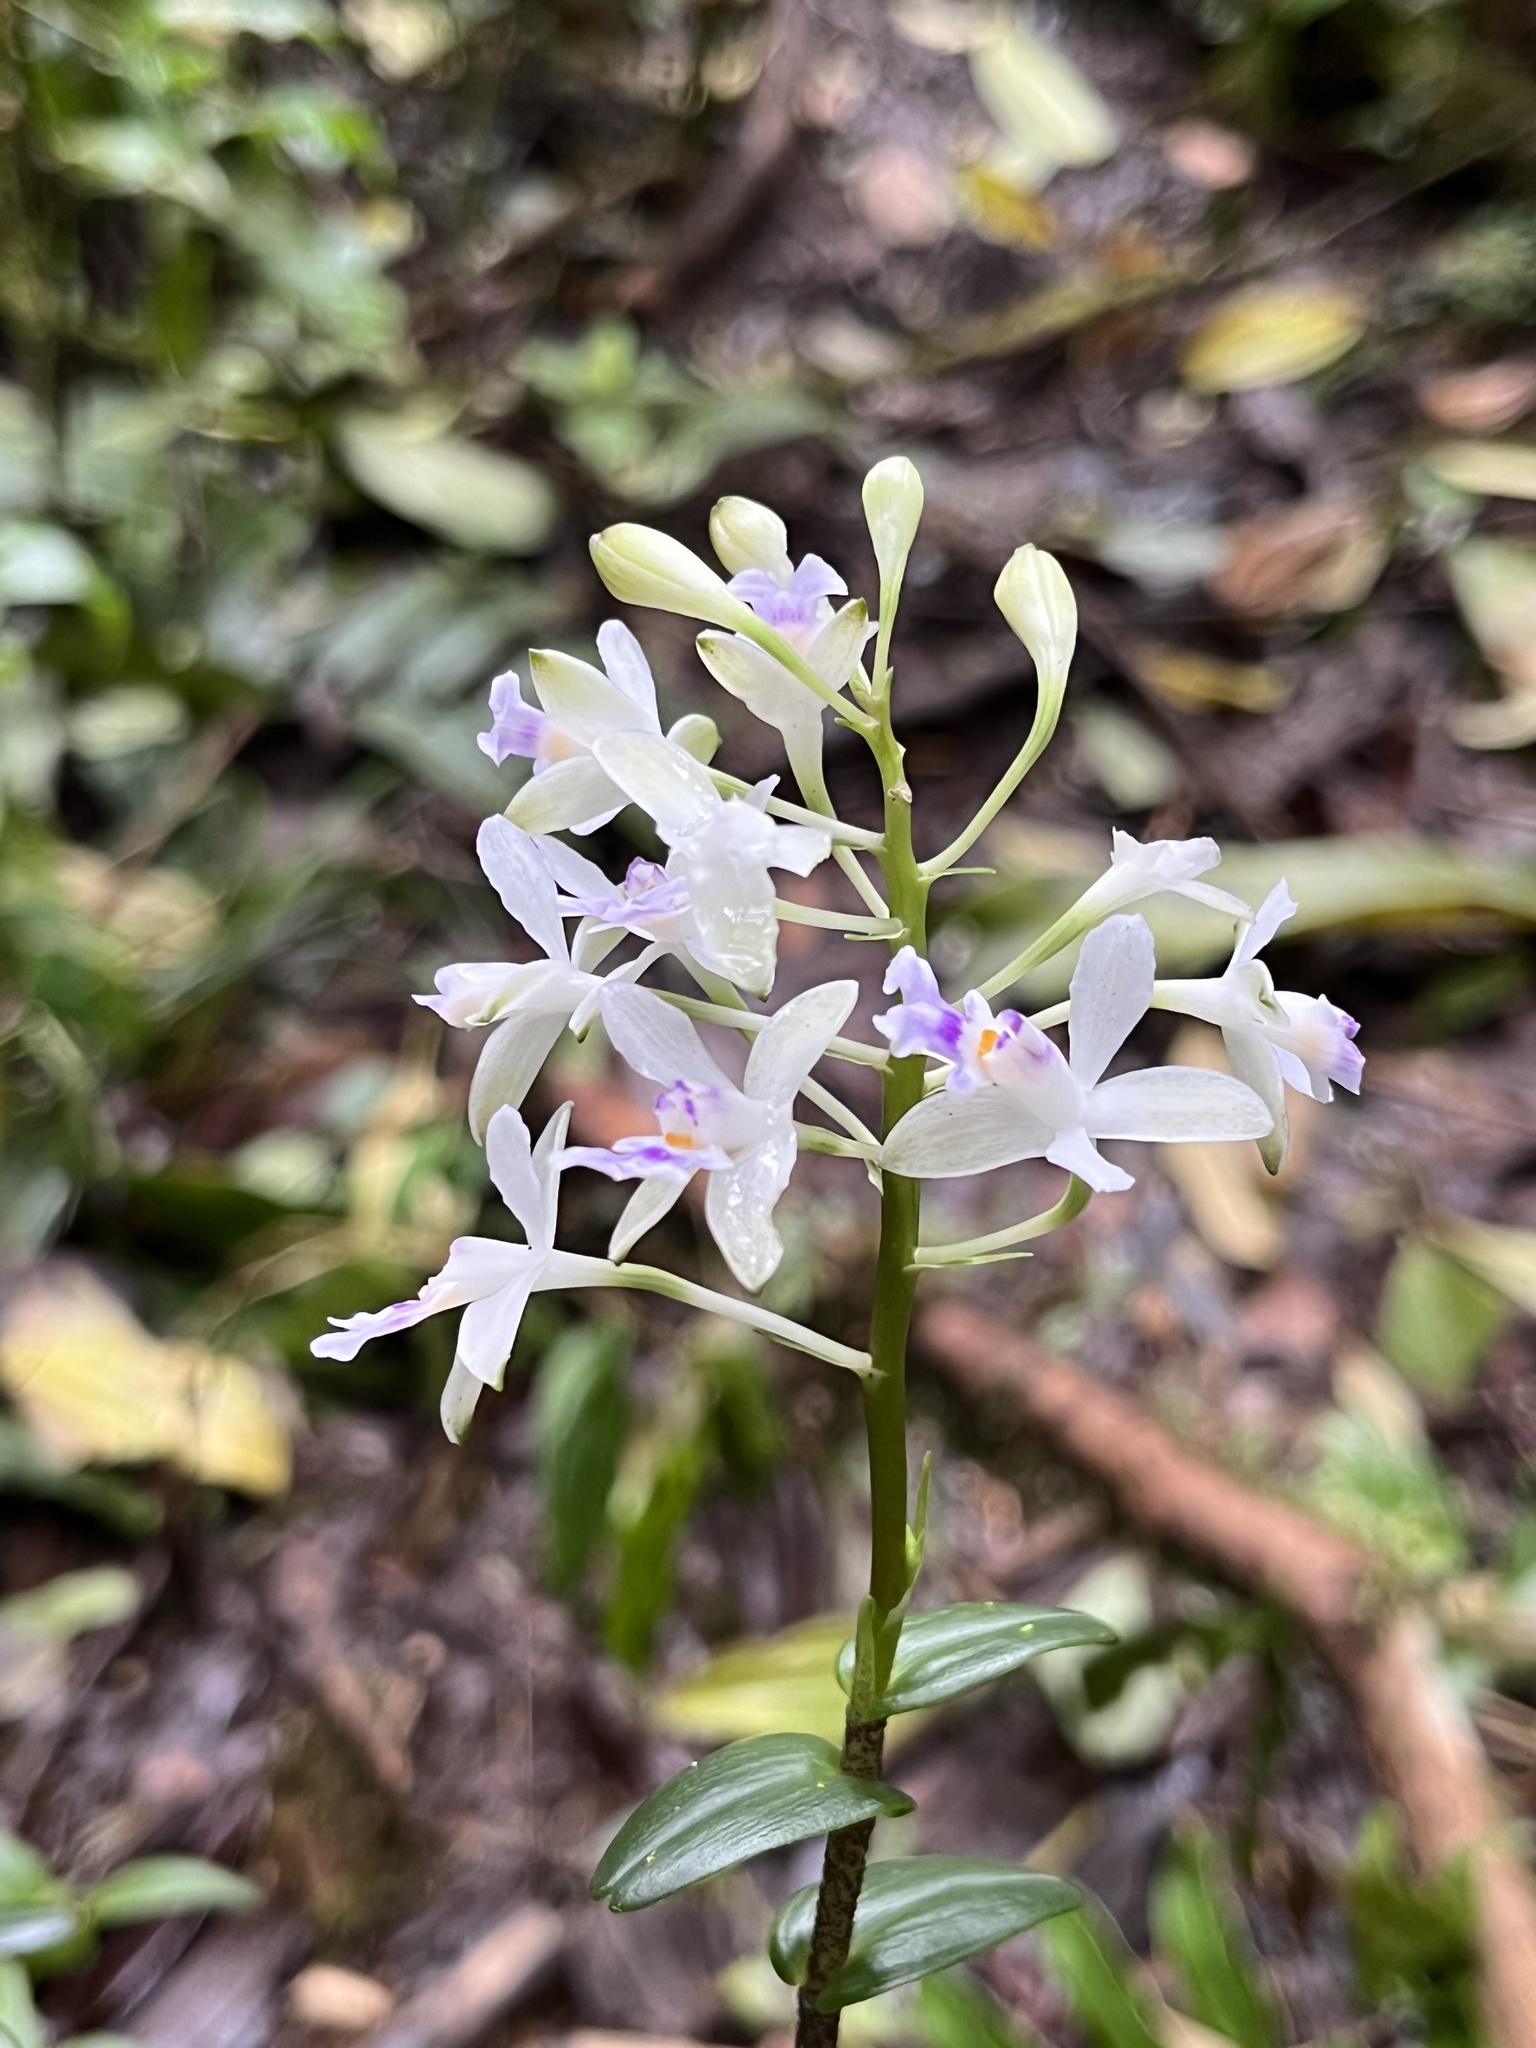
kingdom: Plantae
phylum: Tracheophyta
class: Liliopsida
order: Asparagales
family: Orchidaceae
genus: Epidendrum
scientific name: Epidendrum endresii
